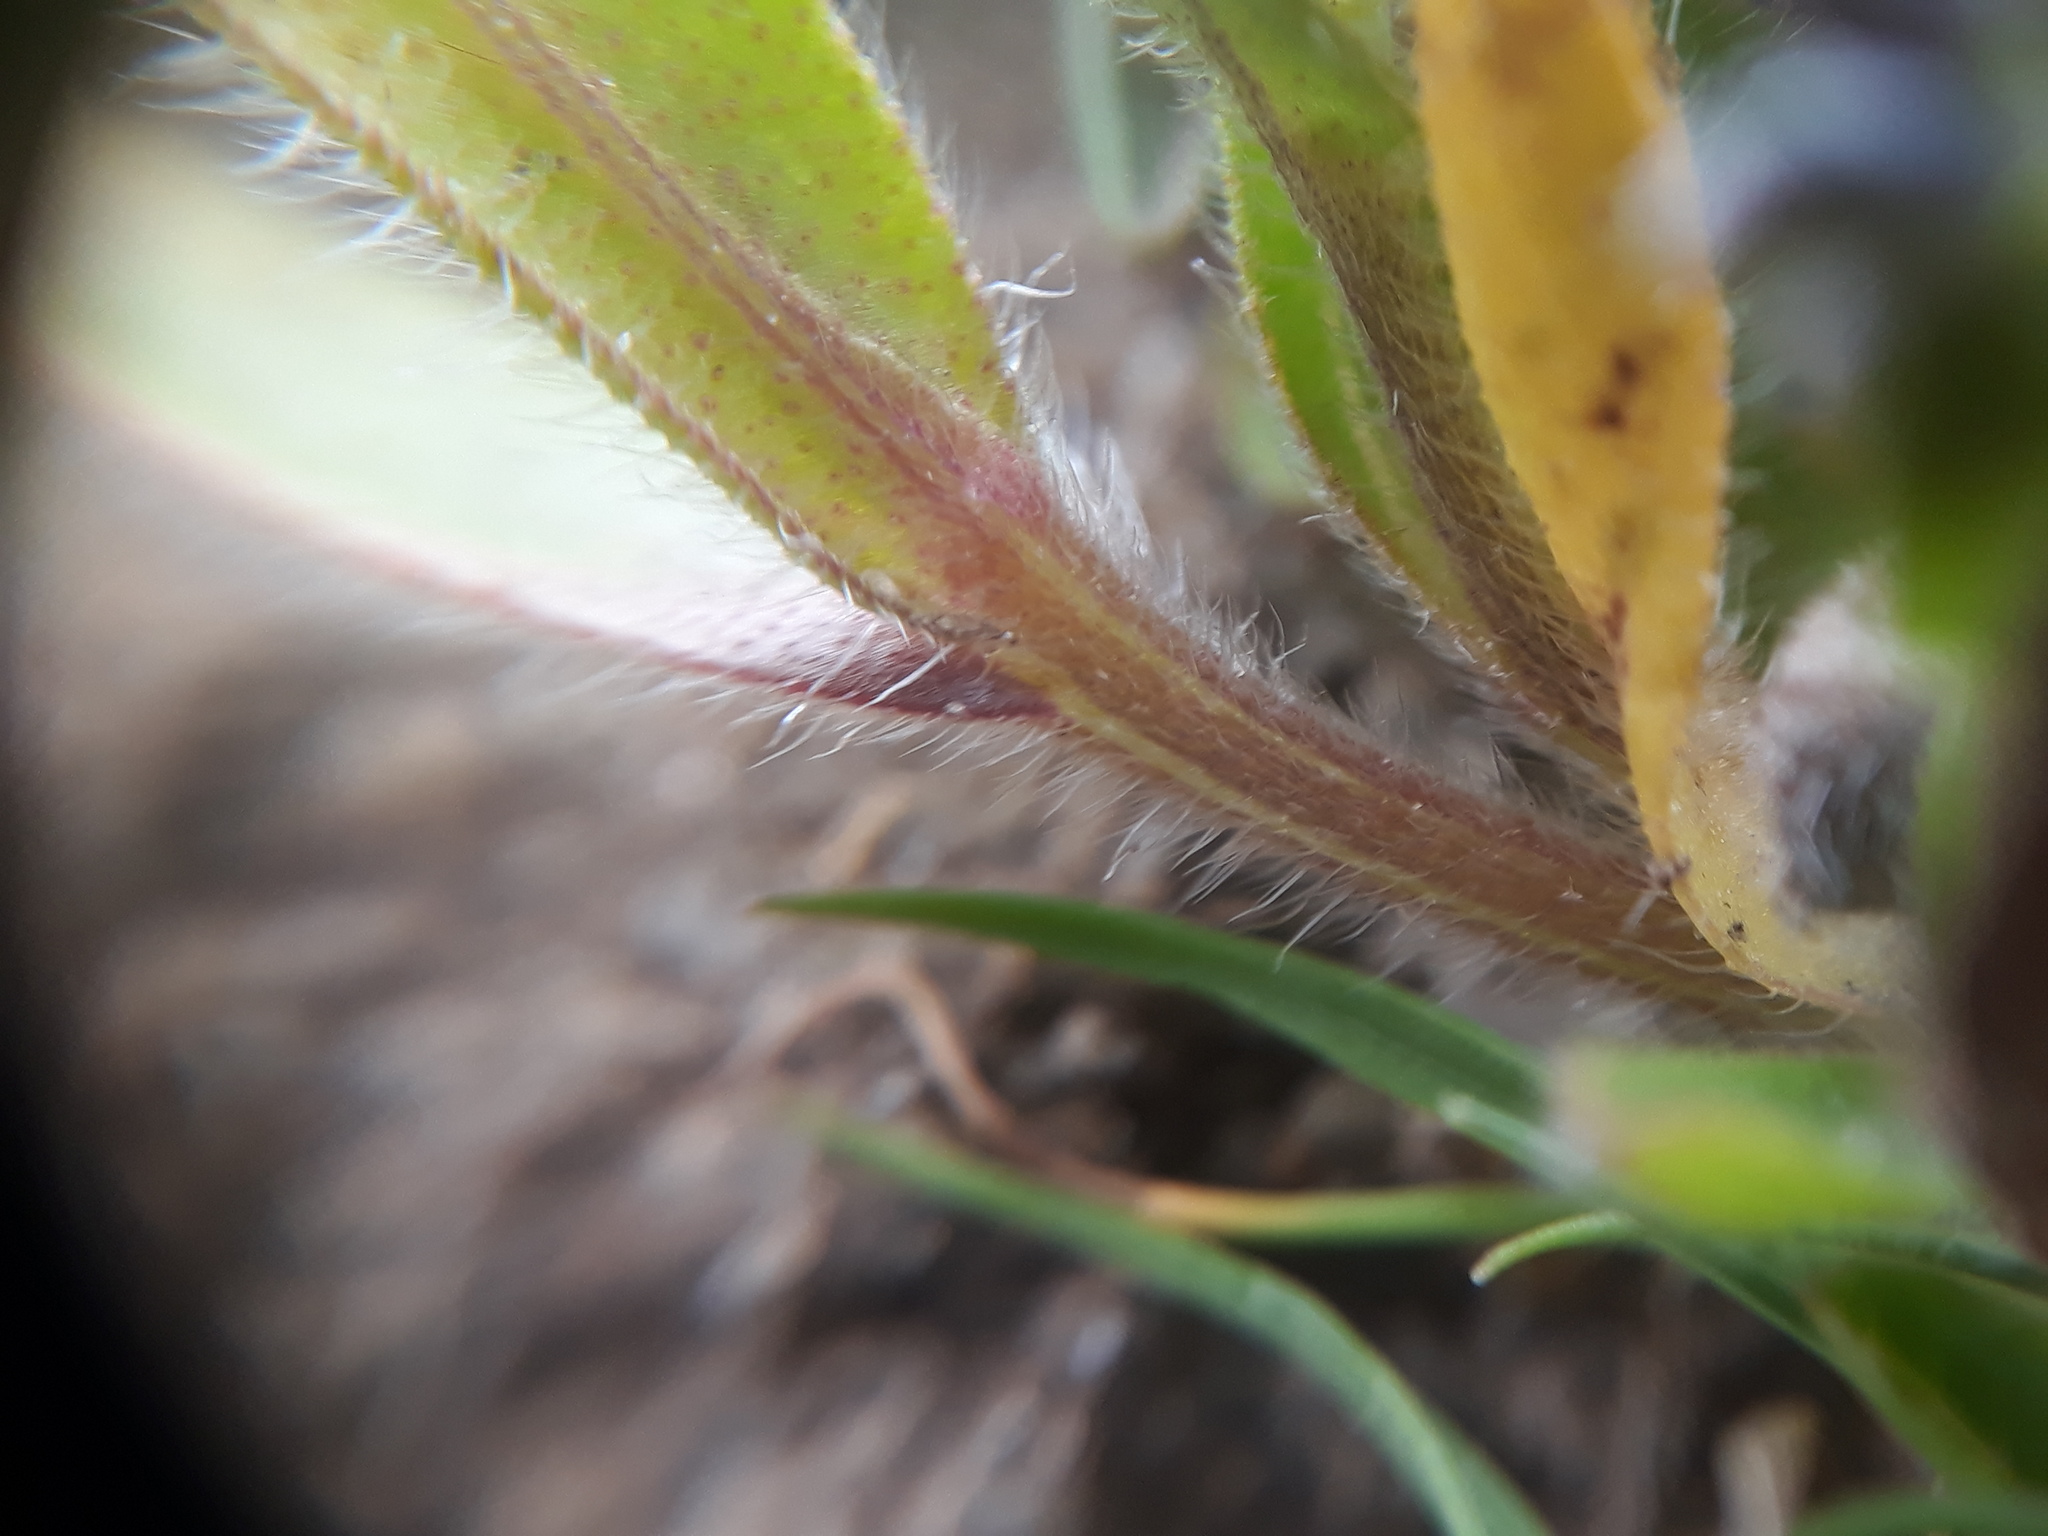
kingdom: Plantae
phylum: Tracheophyta
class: Magnoliopsida
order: Boraginales
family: Boraginaceae
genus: Myosotis
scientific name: Myosotis discolor
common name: Changing forget-me-not
